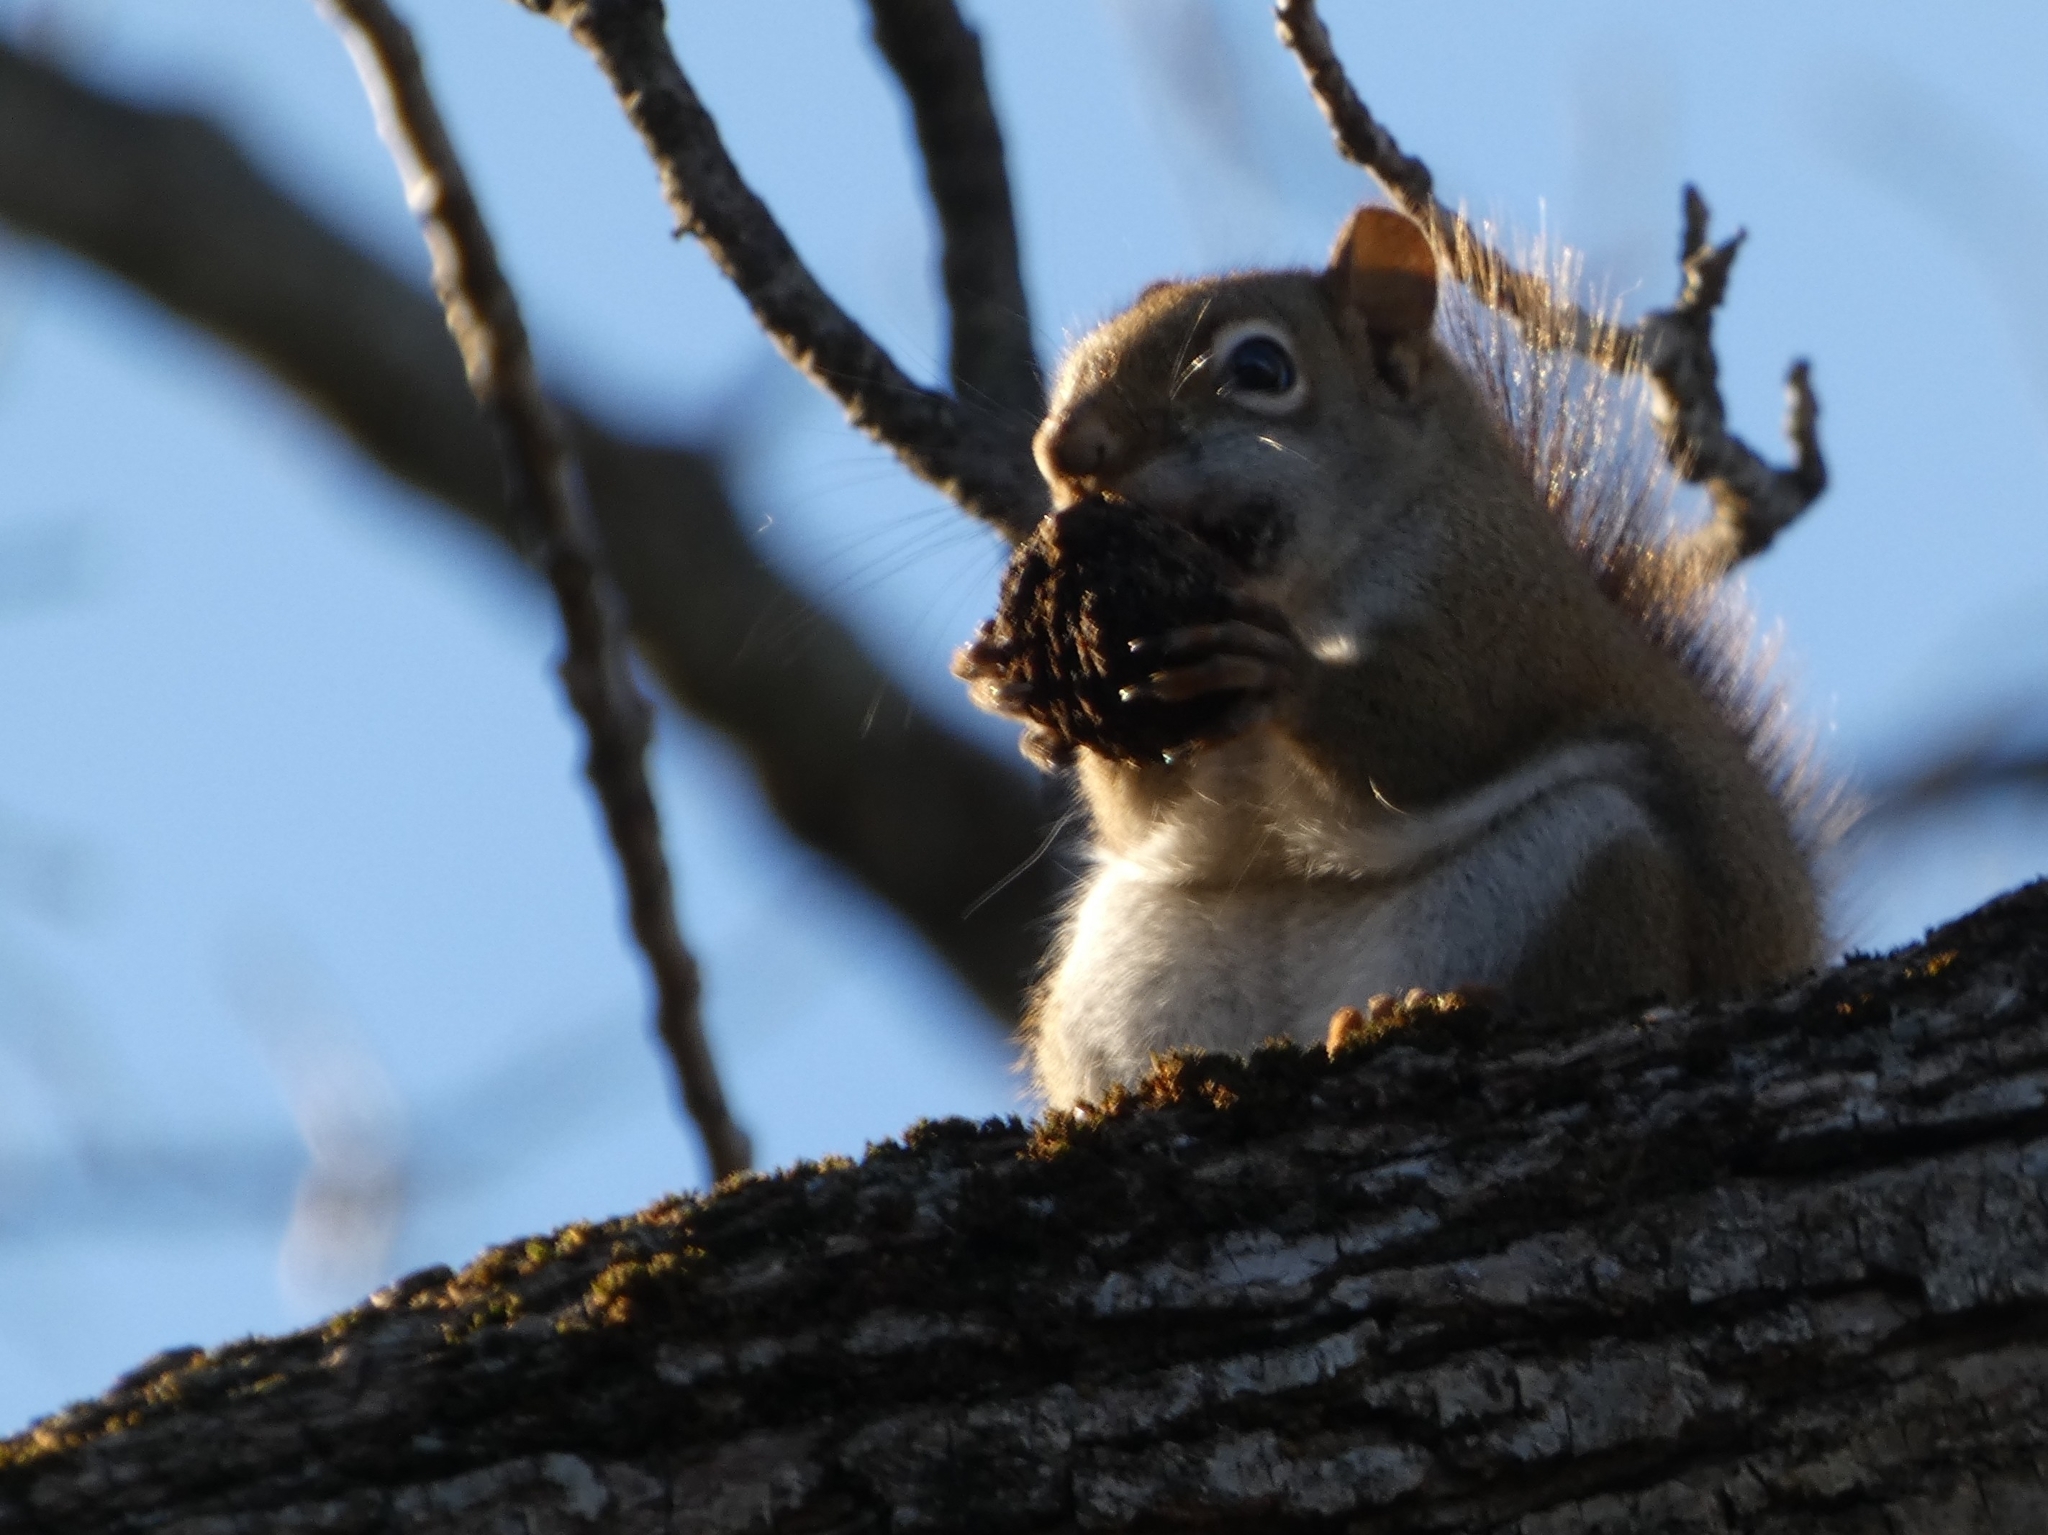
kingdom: Animalia
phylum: Chordata
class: Mammalia
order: Rodentia
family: Sciuridae
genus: Tamiasciurus
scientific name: Tamiasciurus hudsonicus
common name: Red squirrel
